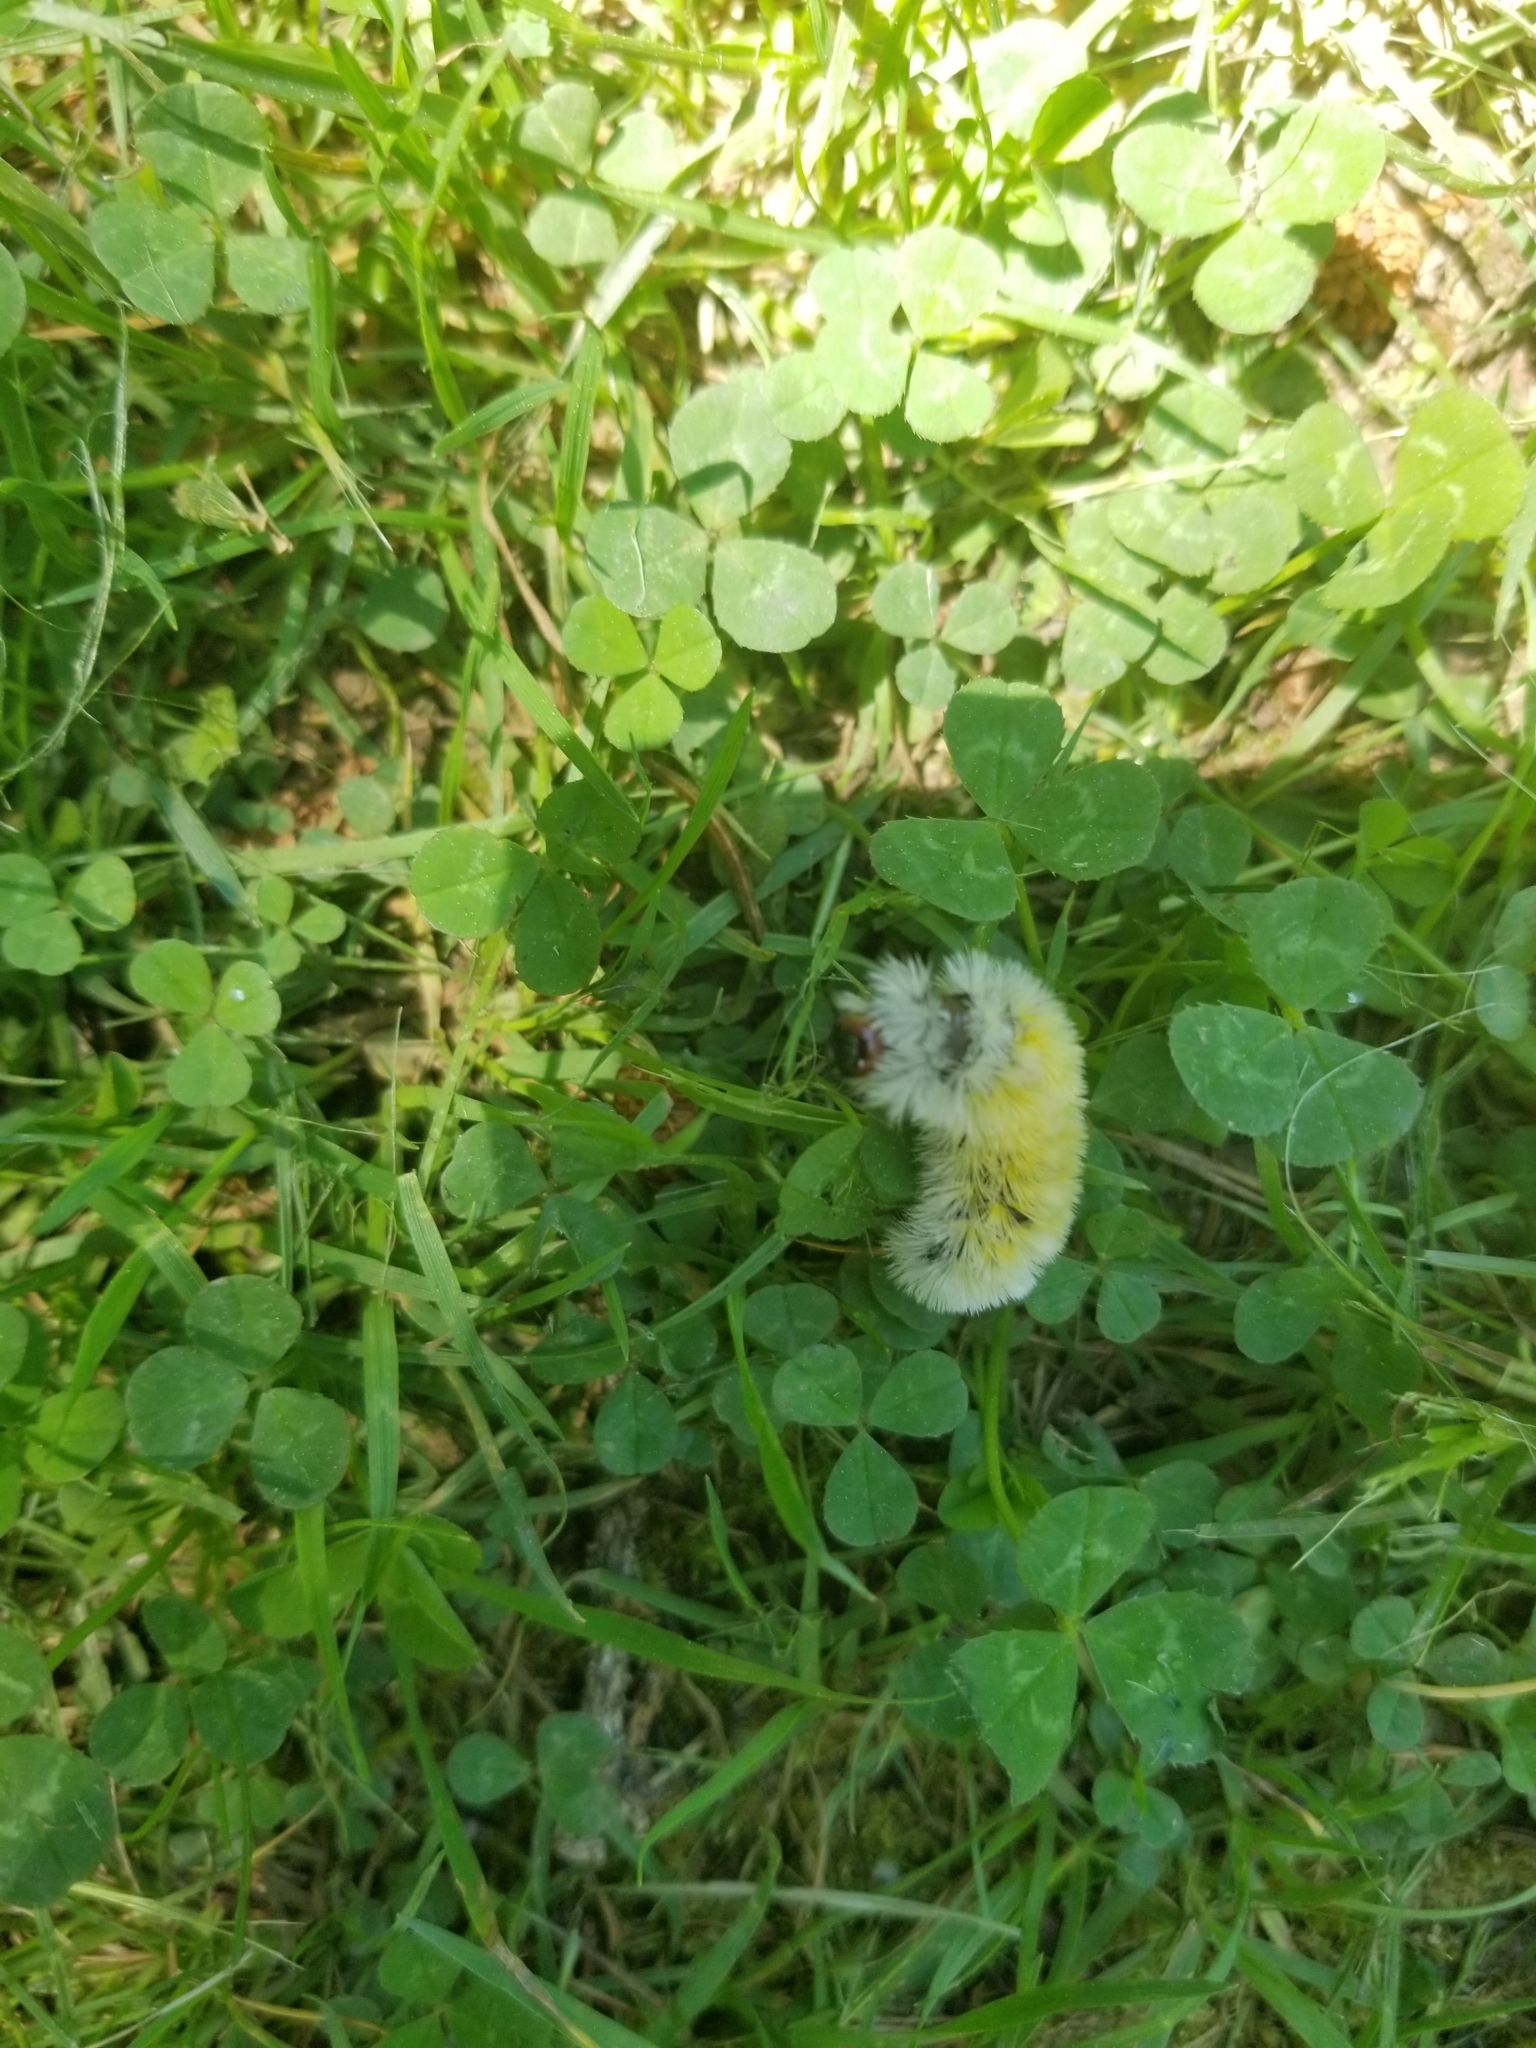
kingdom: Animalia
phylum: Arthropoda
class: Insecta
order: Lepidoptera
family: Erebidae
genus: Ctenucha
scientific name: Ctenucha virginica
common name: Virginia ctenucha moth
